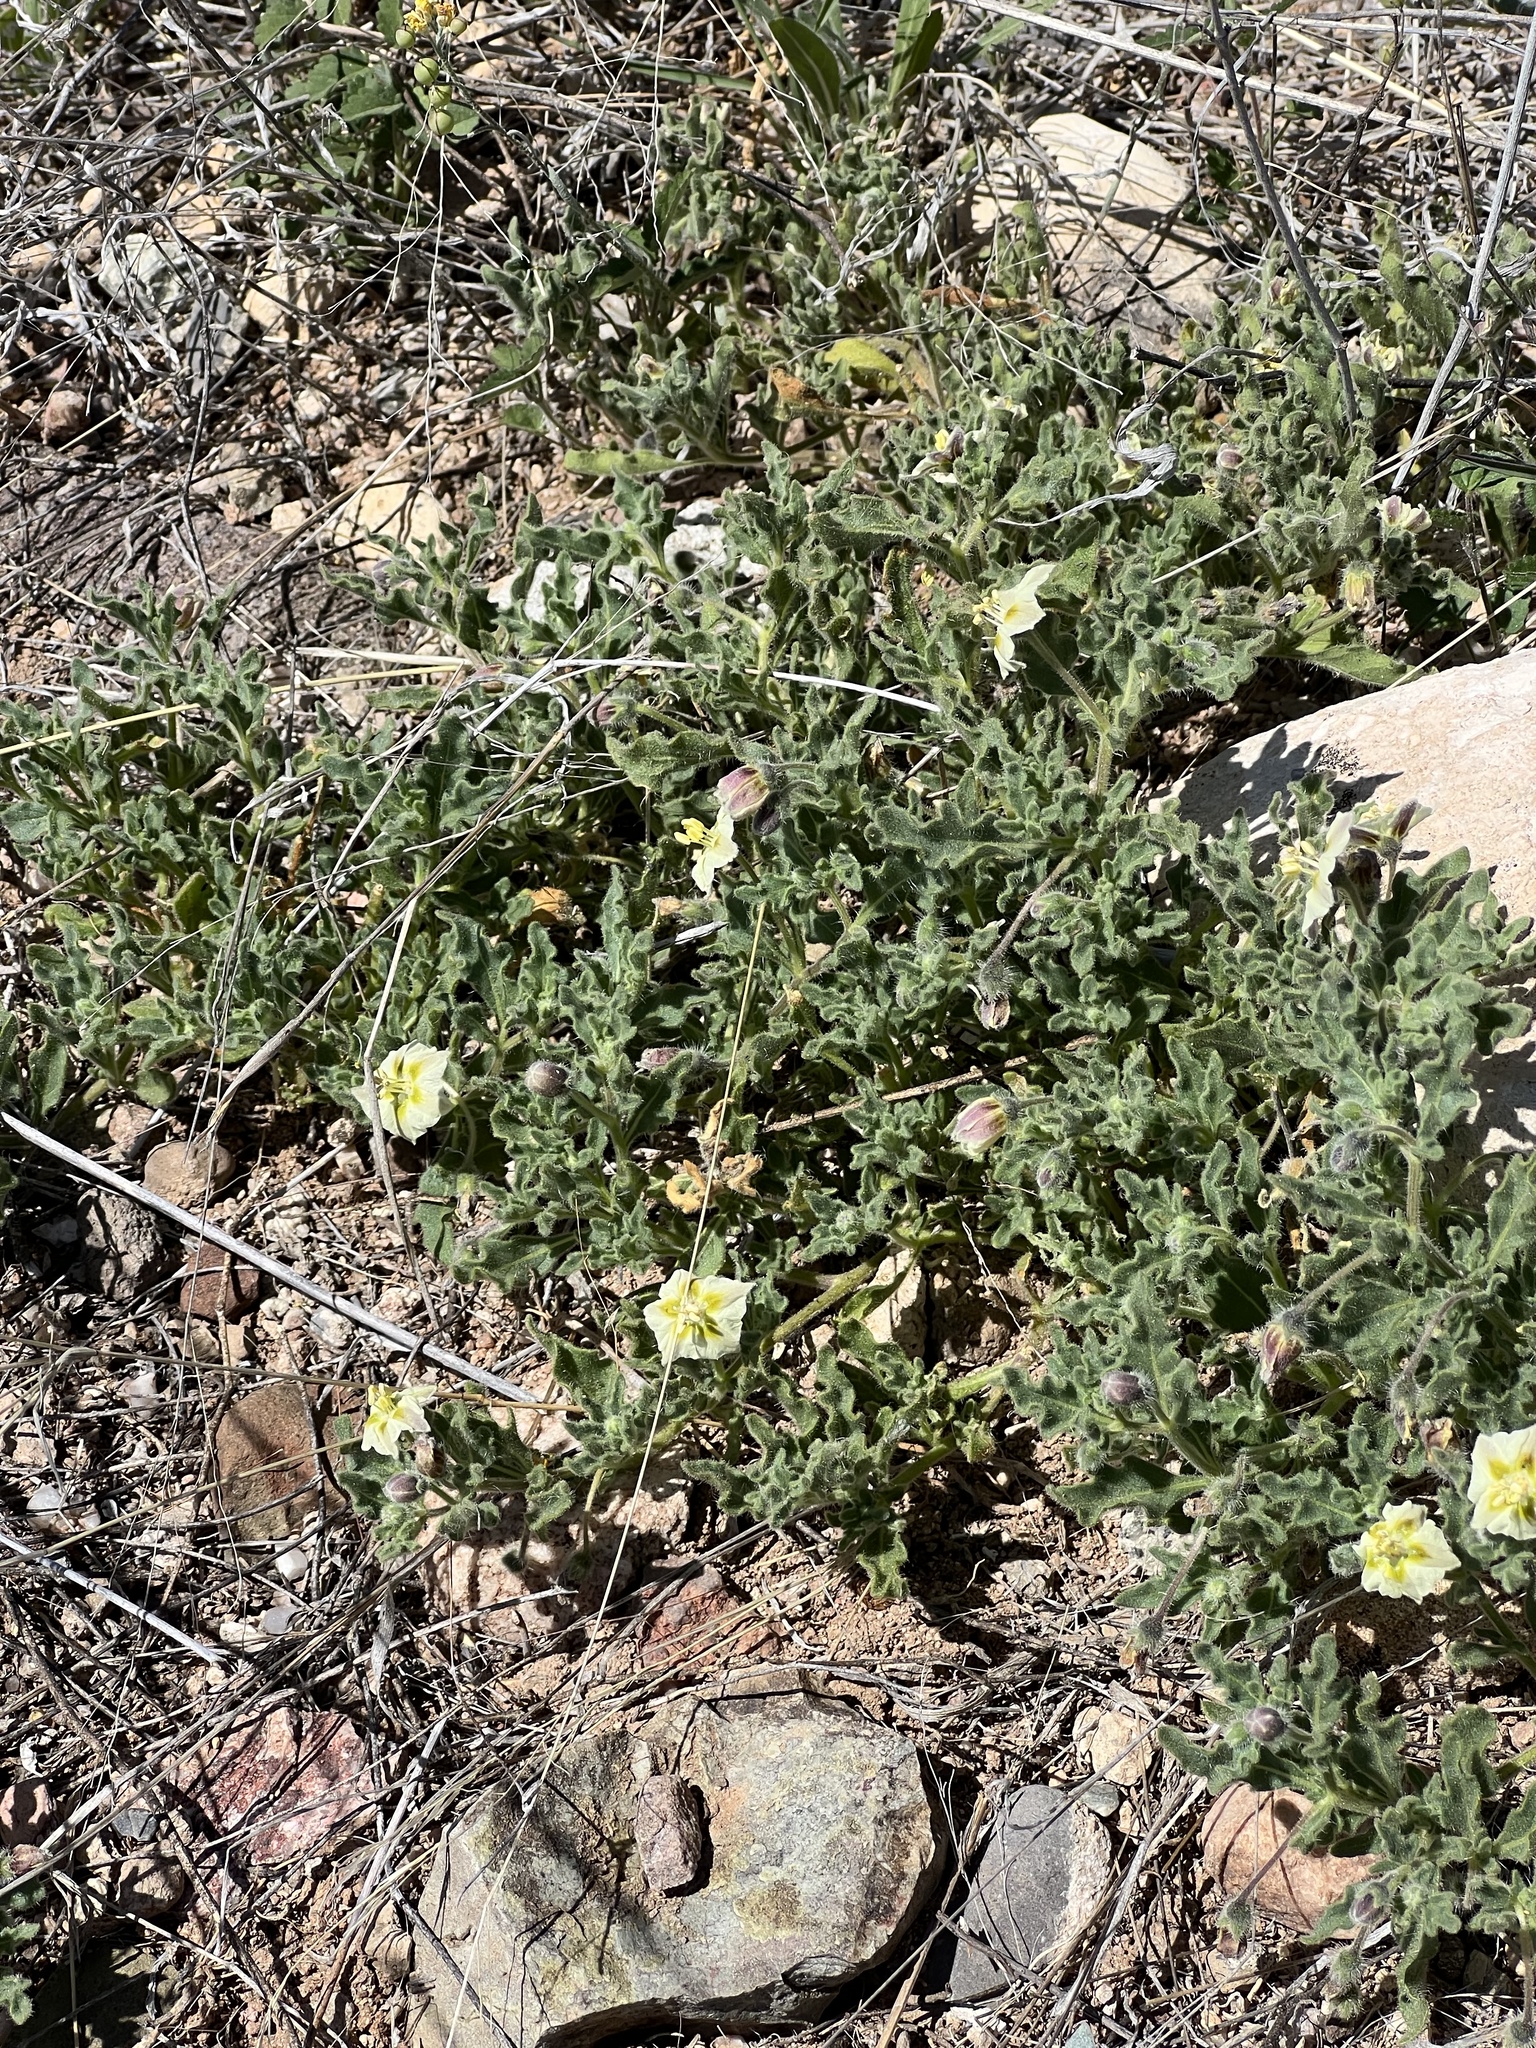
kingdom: Plantae
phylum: Tracheophyta
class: Magnoliopsida
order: Solanales
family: Solanaceae
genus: Chamaesaracha
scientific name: Chamaesaracha sordida
